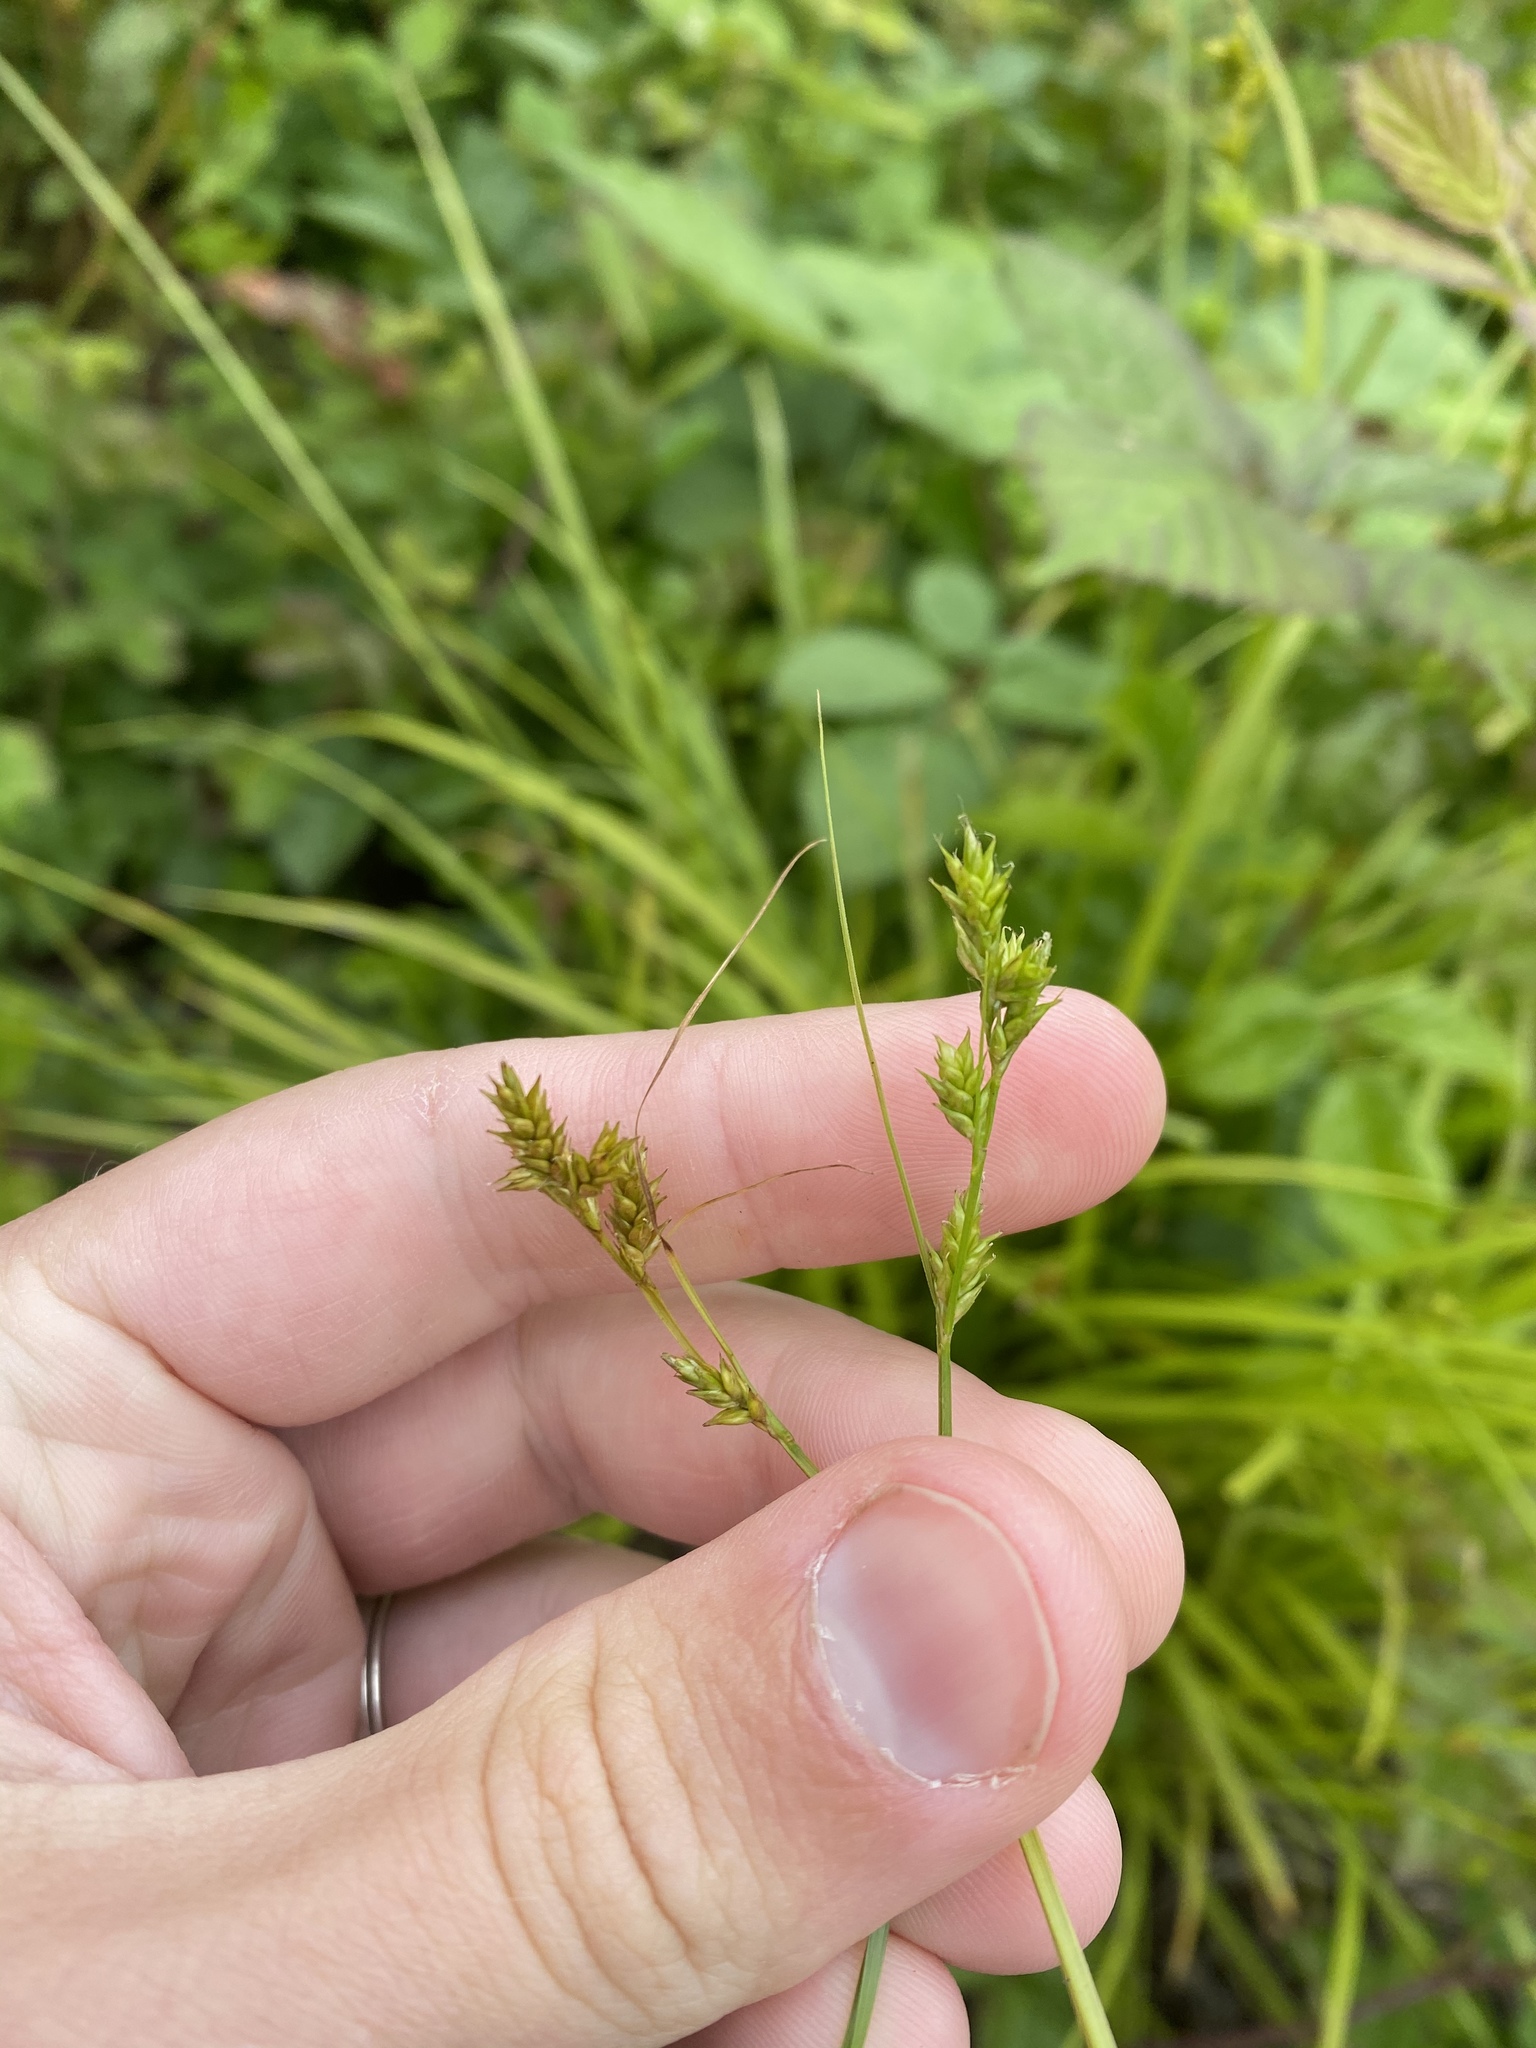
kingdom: Plantae
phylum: Tracheophyta
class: Liliopsida
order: Poales
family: Cyperaceae
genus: Carex
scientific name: Carex deweyana
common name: Dewey's sedge
